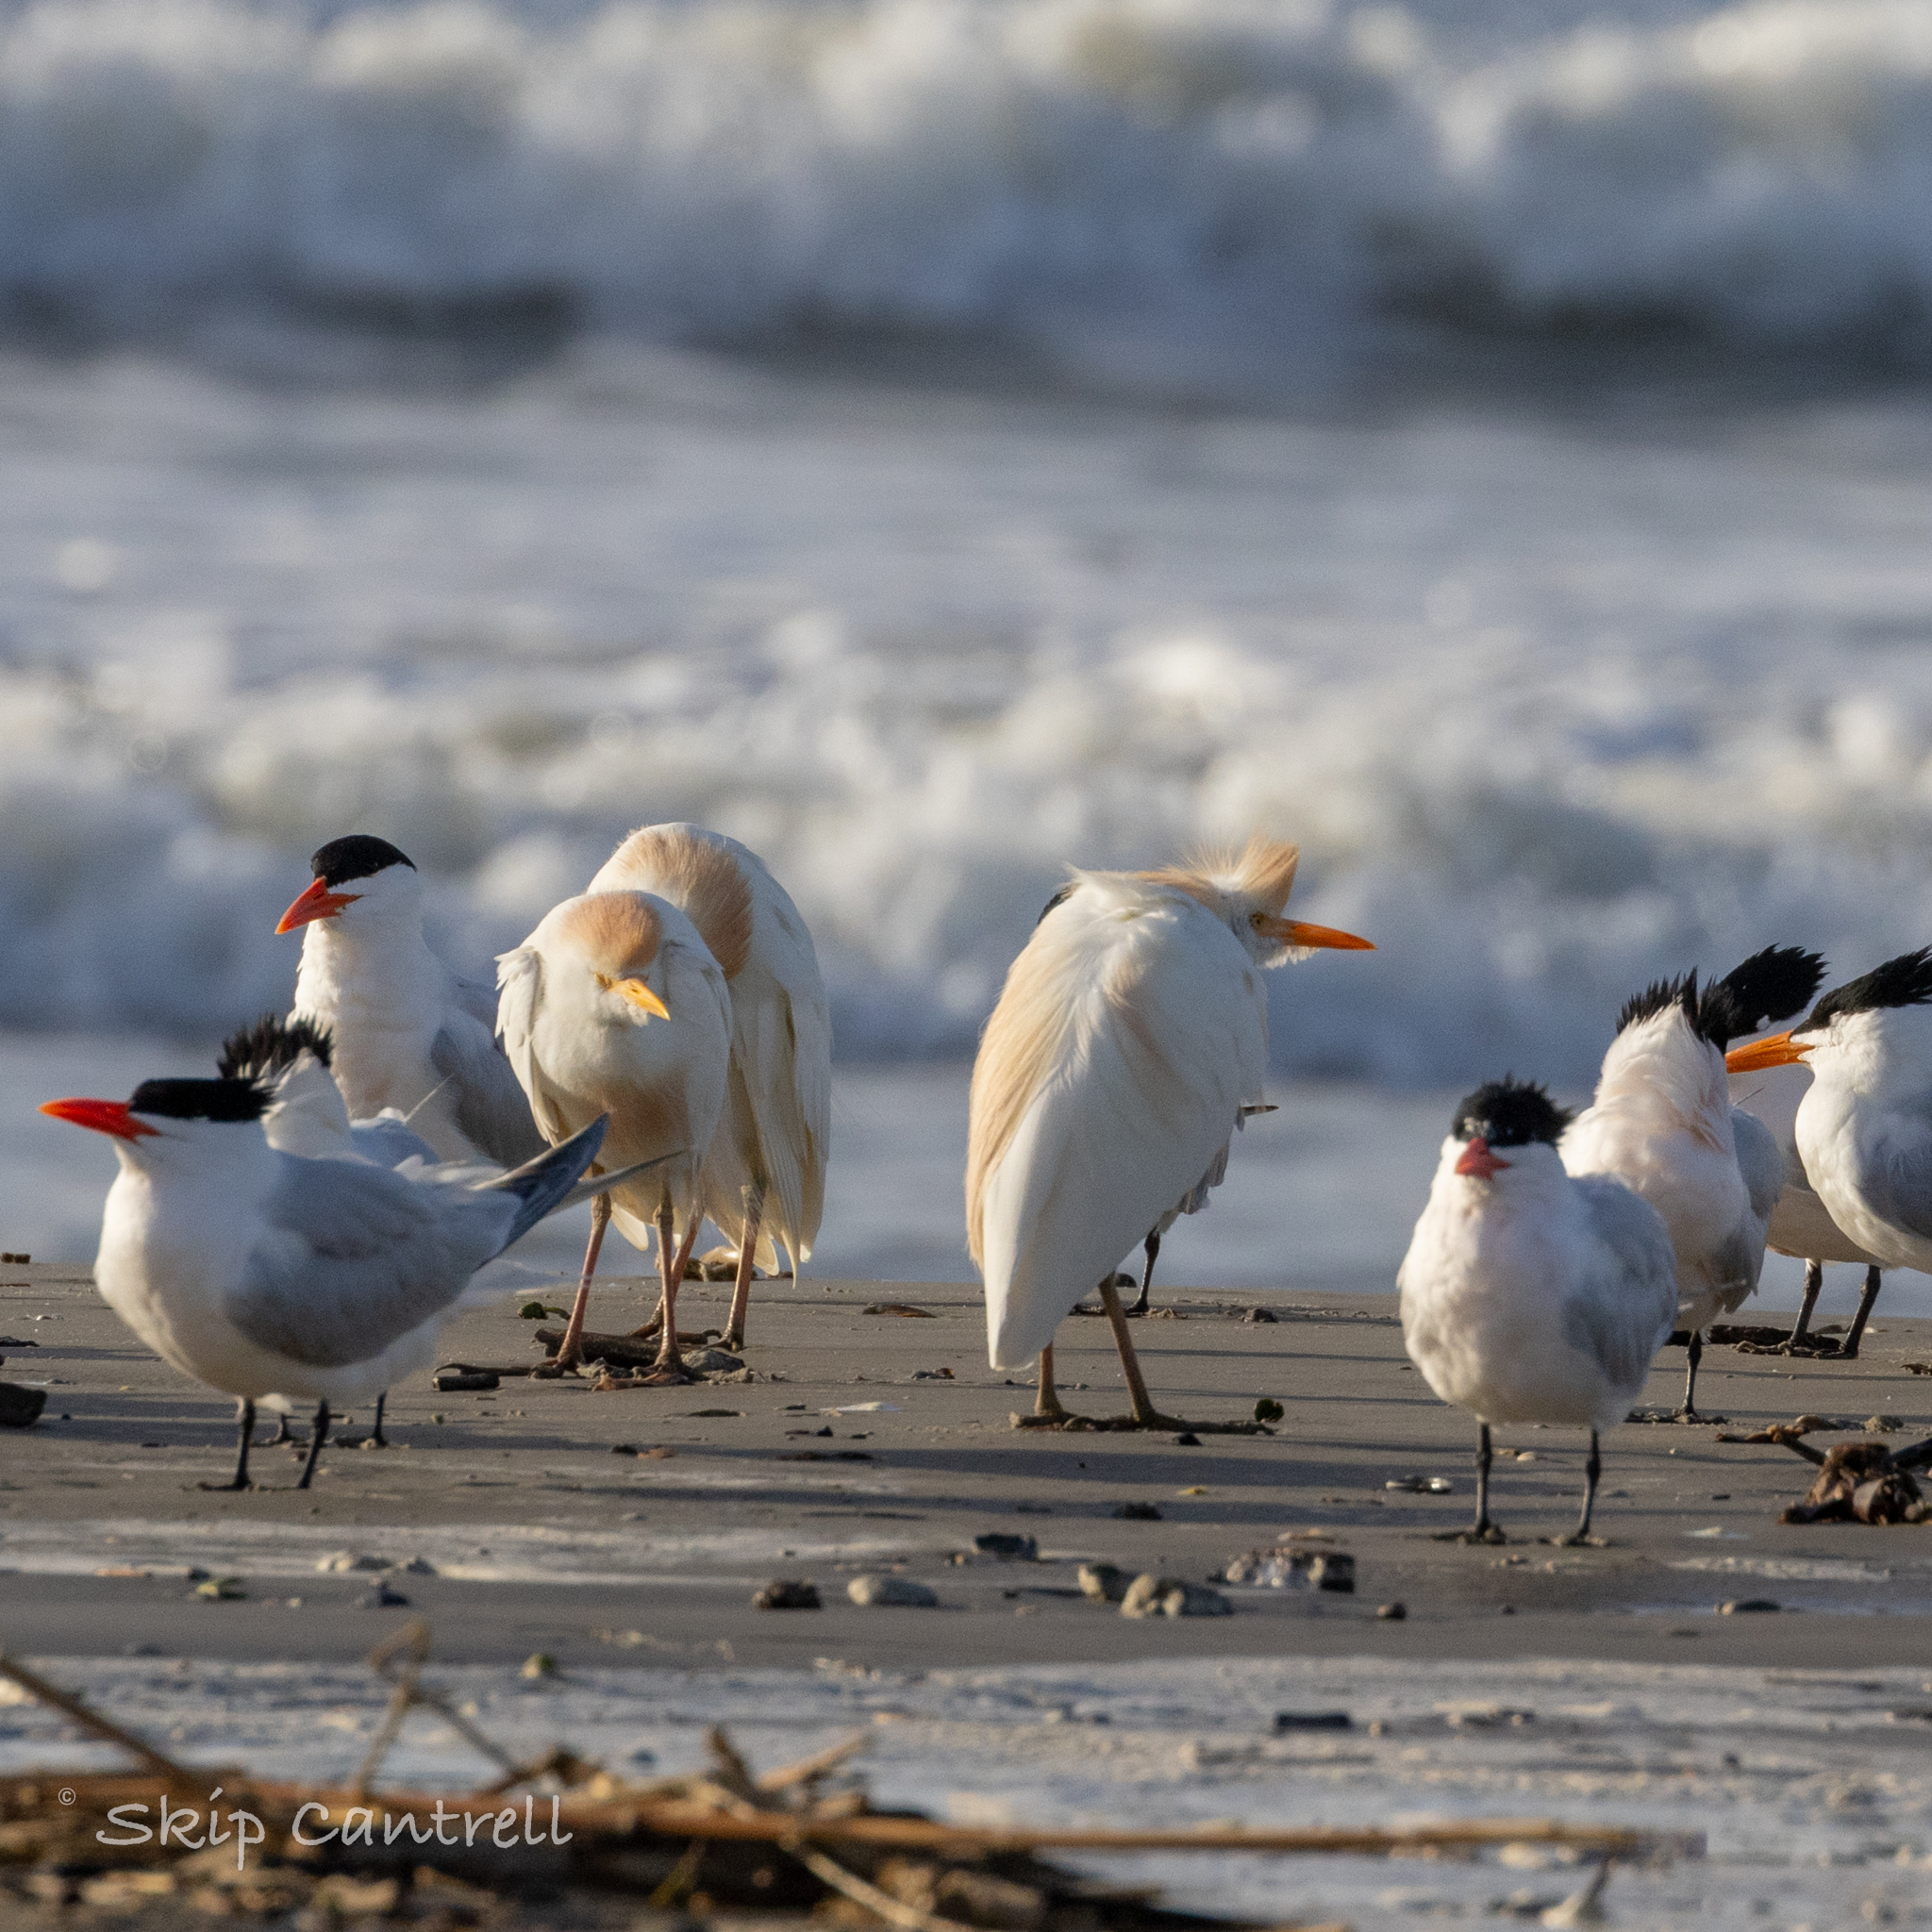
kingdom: Animalia
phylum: Chordata
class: Aves
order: Pelecaniformes
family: Ardeidae
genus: Bubulcus
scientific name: Bubulcus ibis
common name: Cattle egret
